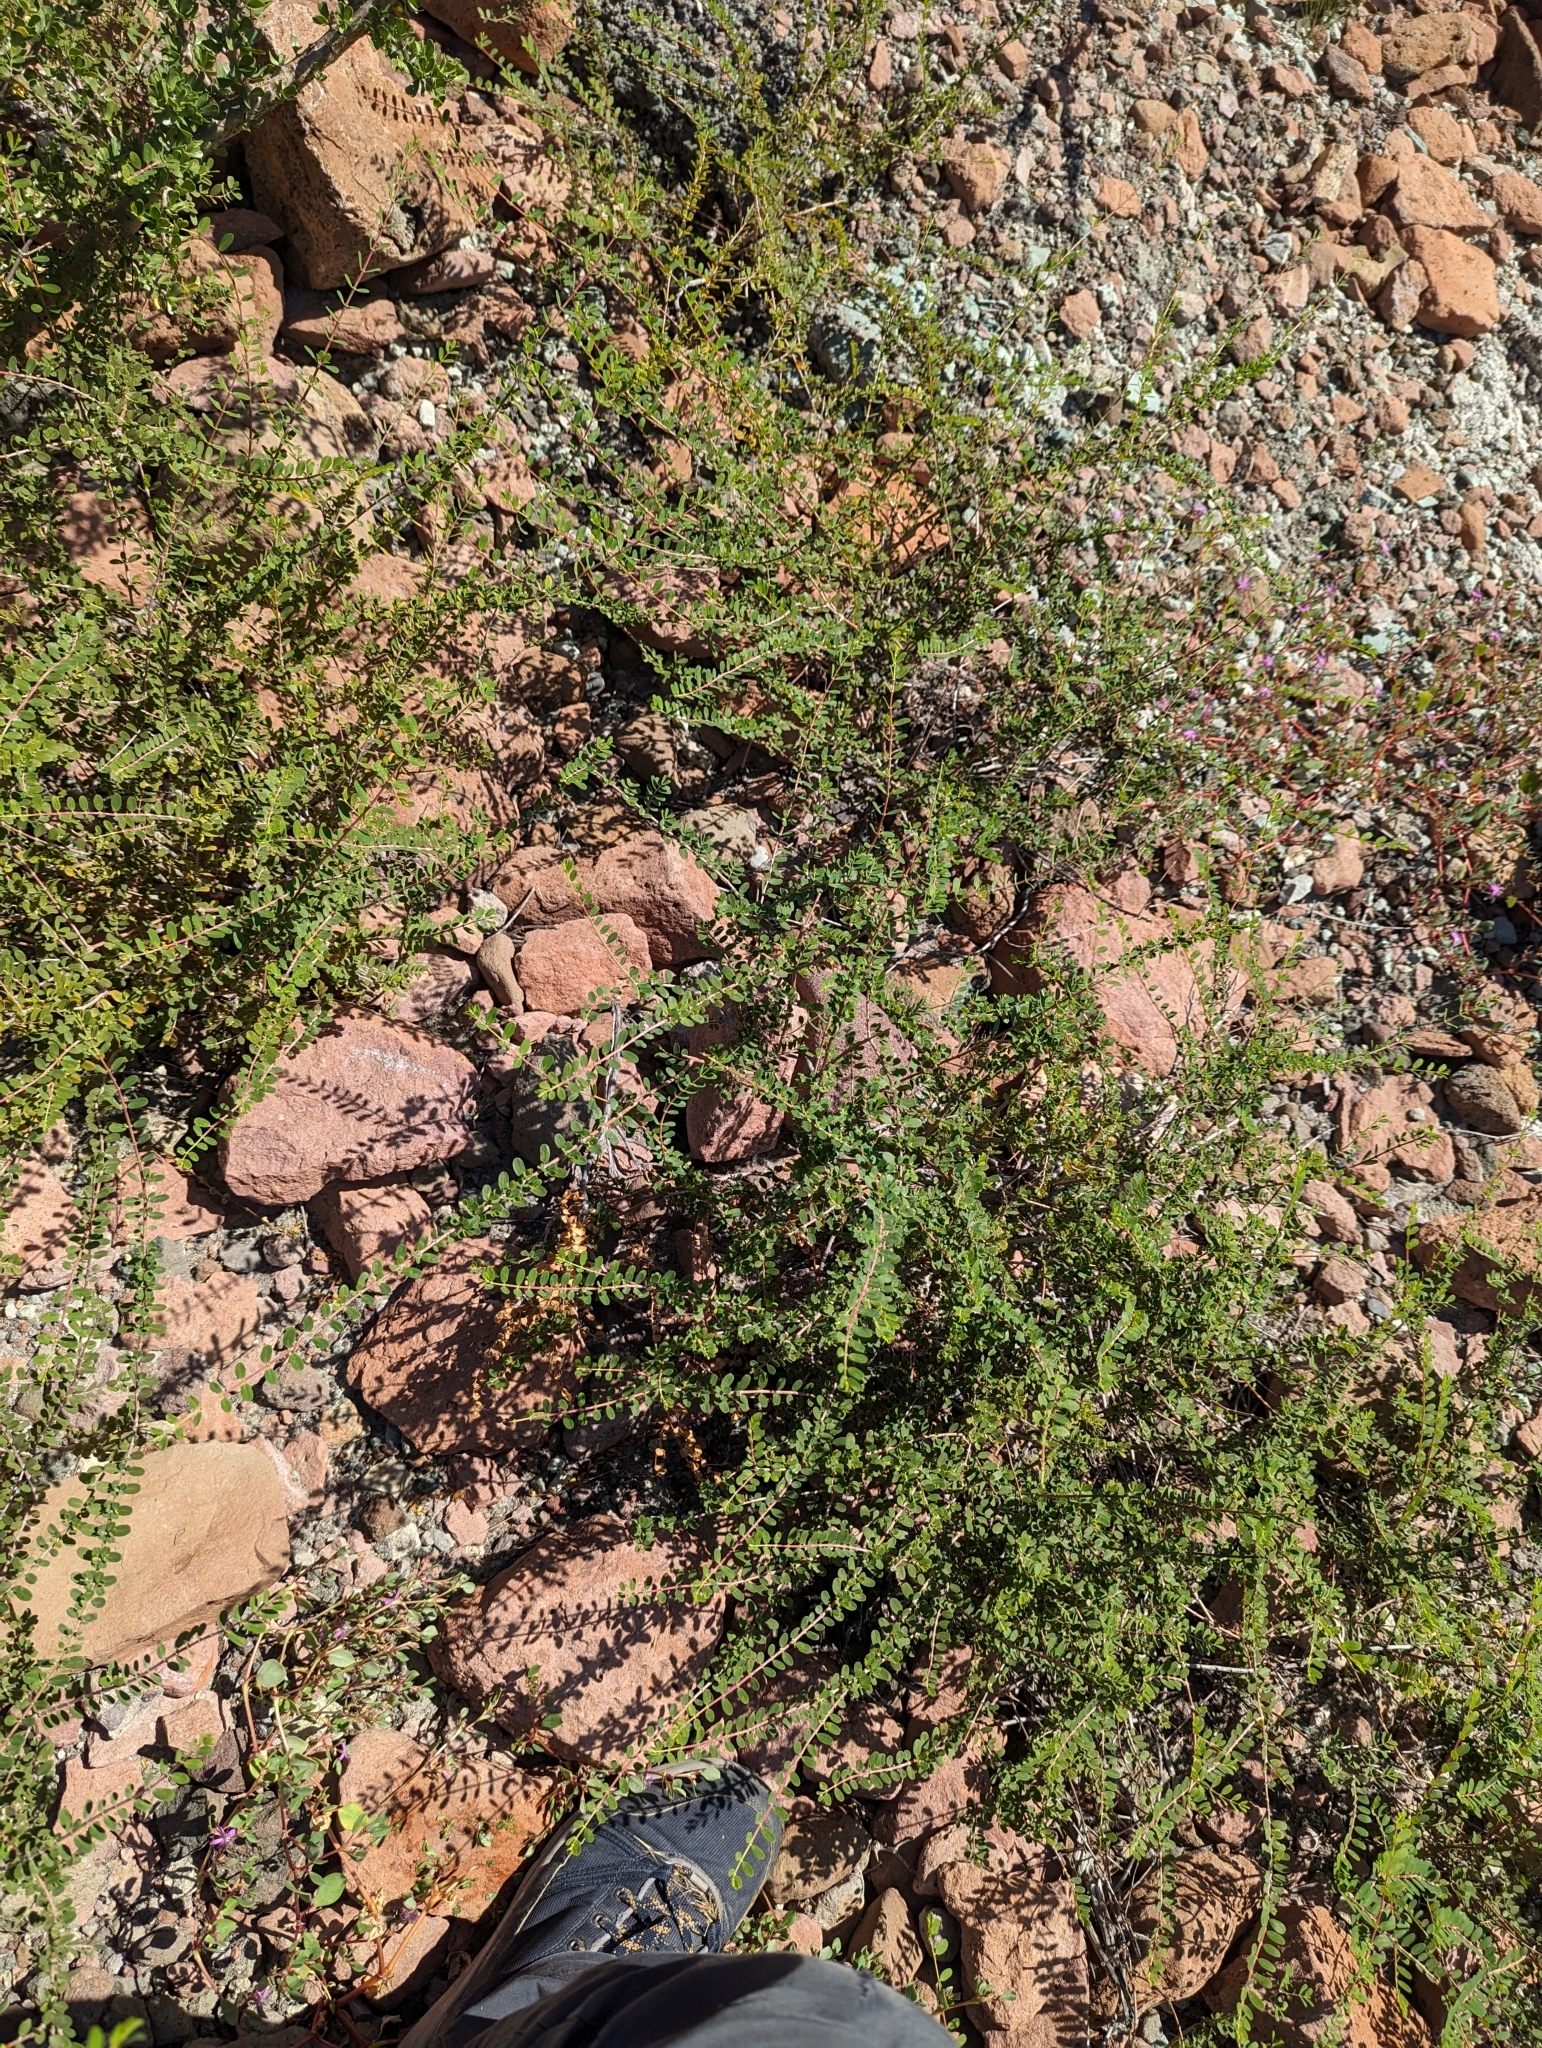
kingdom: Plantae
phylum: Tracheophyta
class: Magnoliopsida
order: Malpighiales
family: Euphorbiaceae
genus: Euphorbia
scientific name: Euphorbia magdalenae
